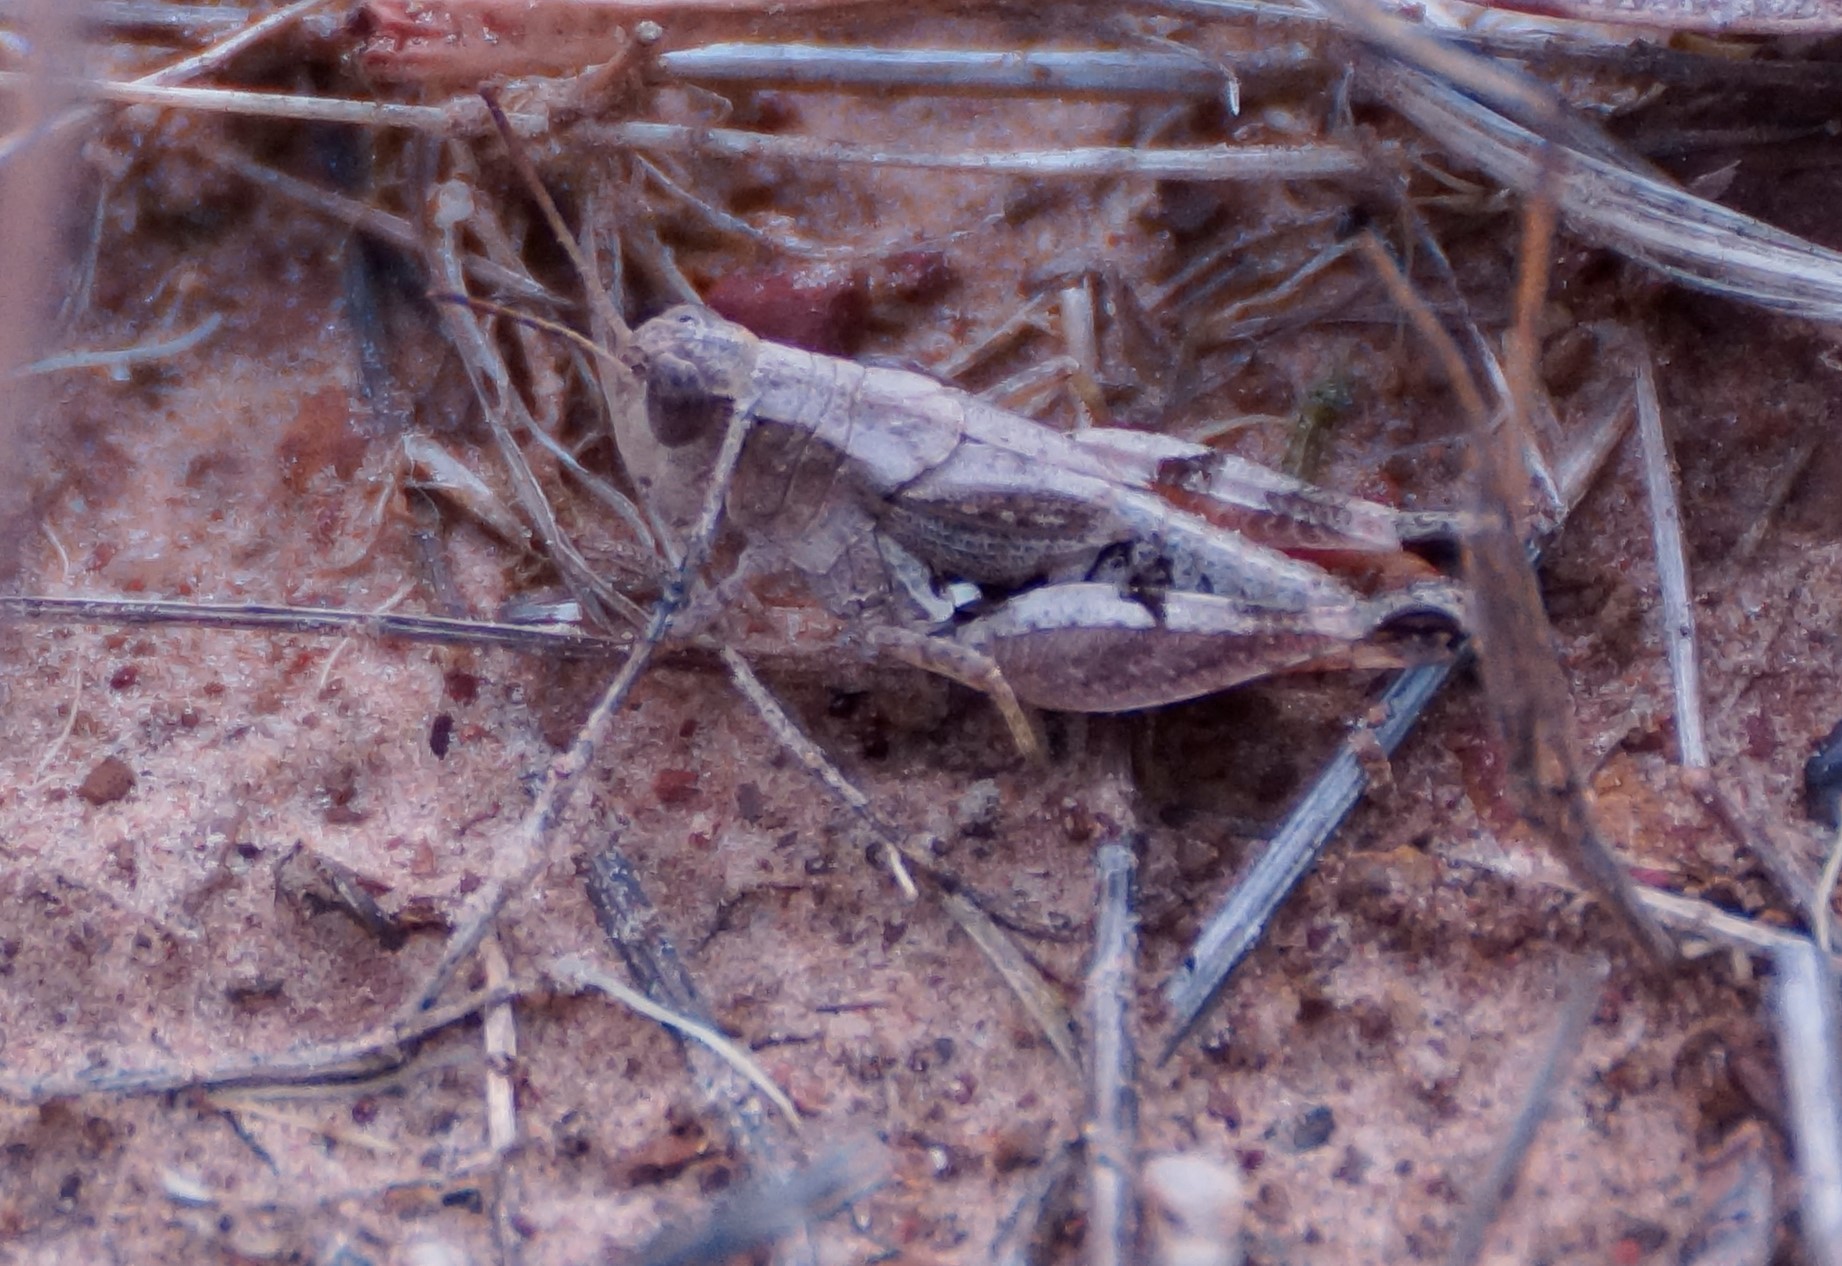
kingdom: Animalia
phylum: Arthropoda
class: Insecta
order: Orthoptera
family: Acrididae
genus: Phaulacridium
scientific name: Phaulacridium vittatum
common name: Wingless grasshopper
